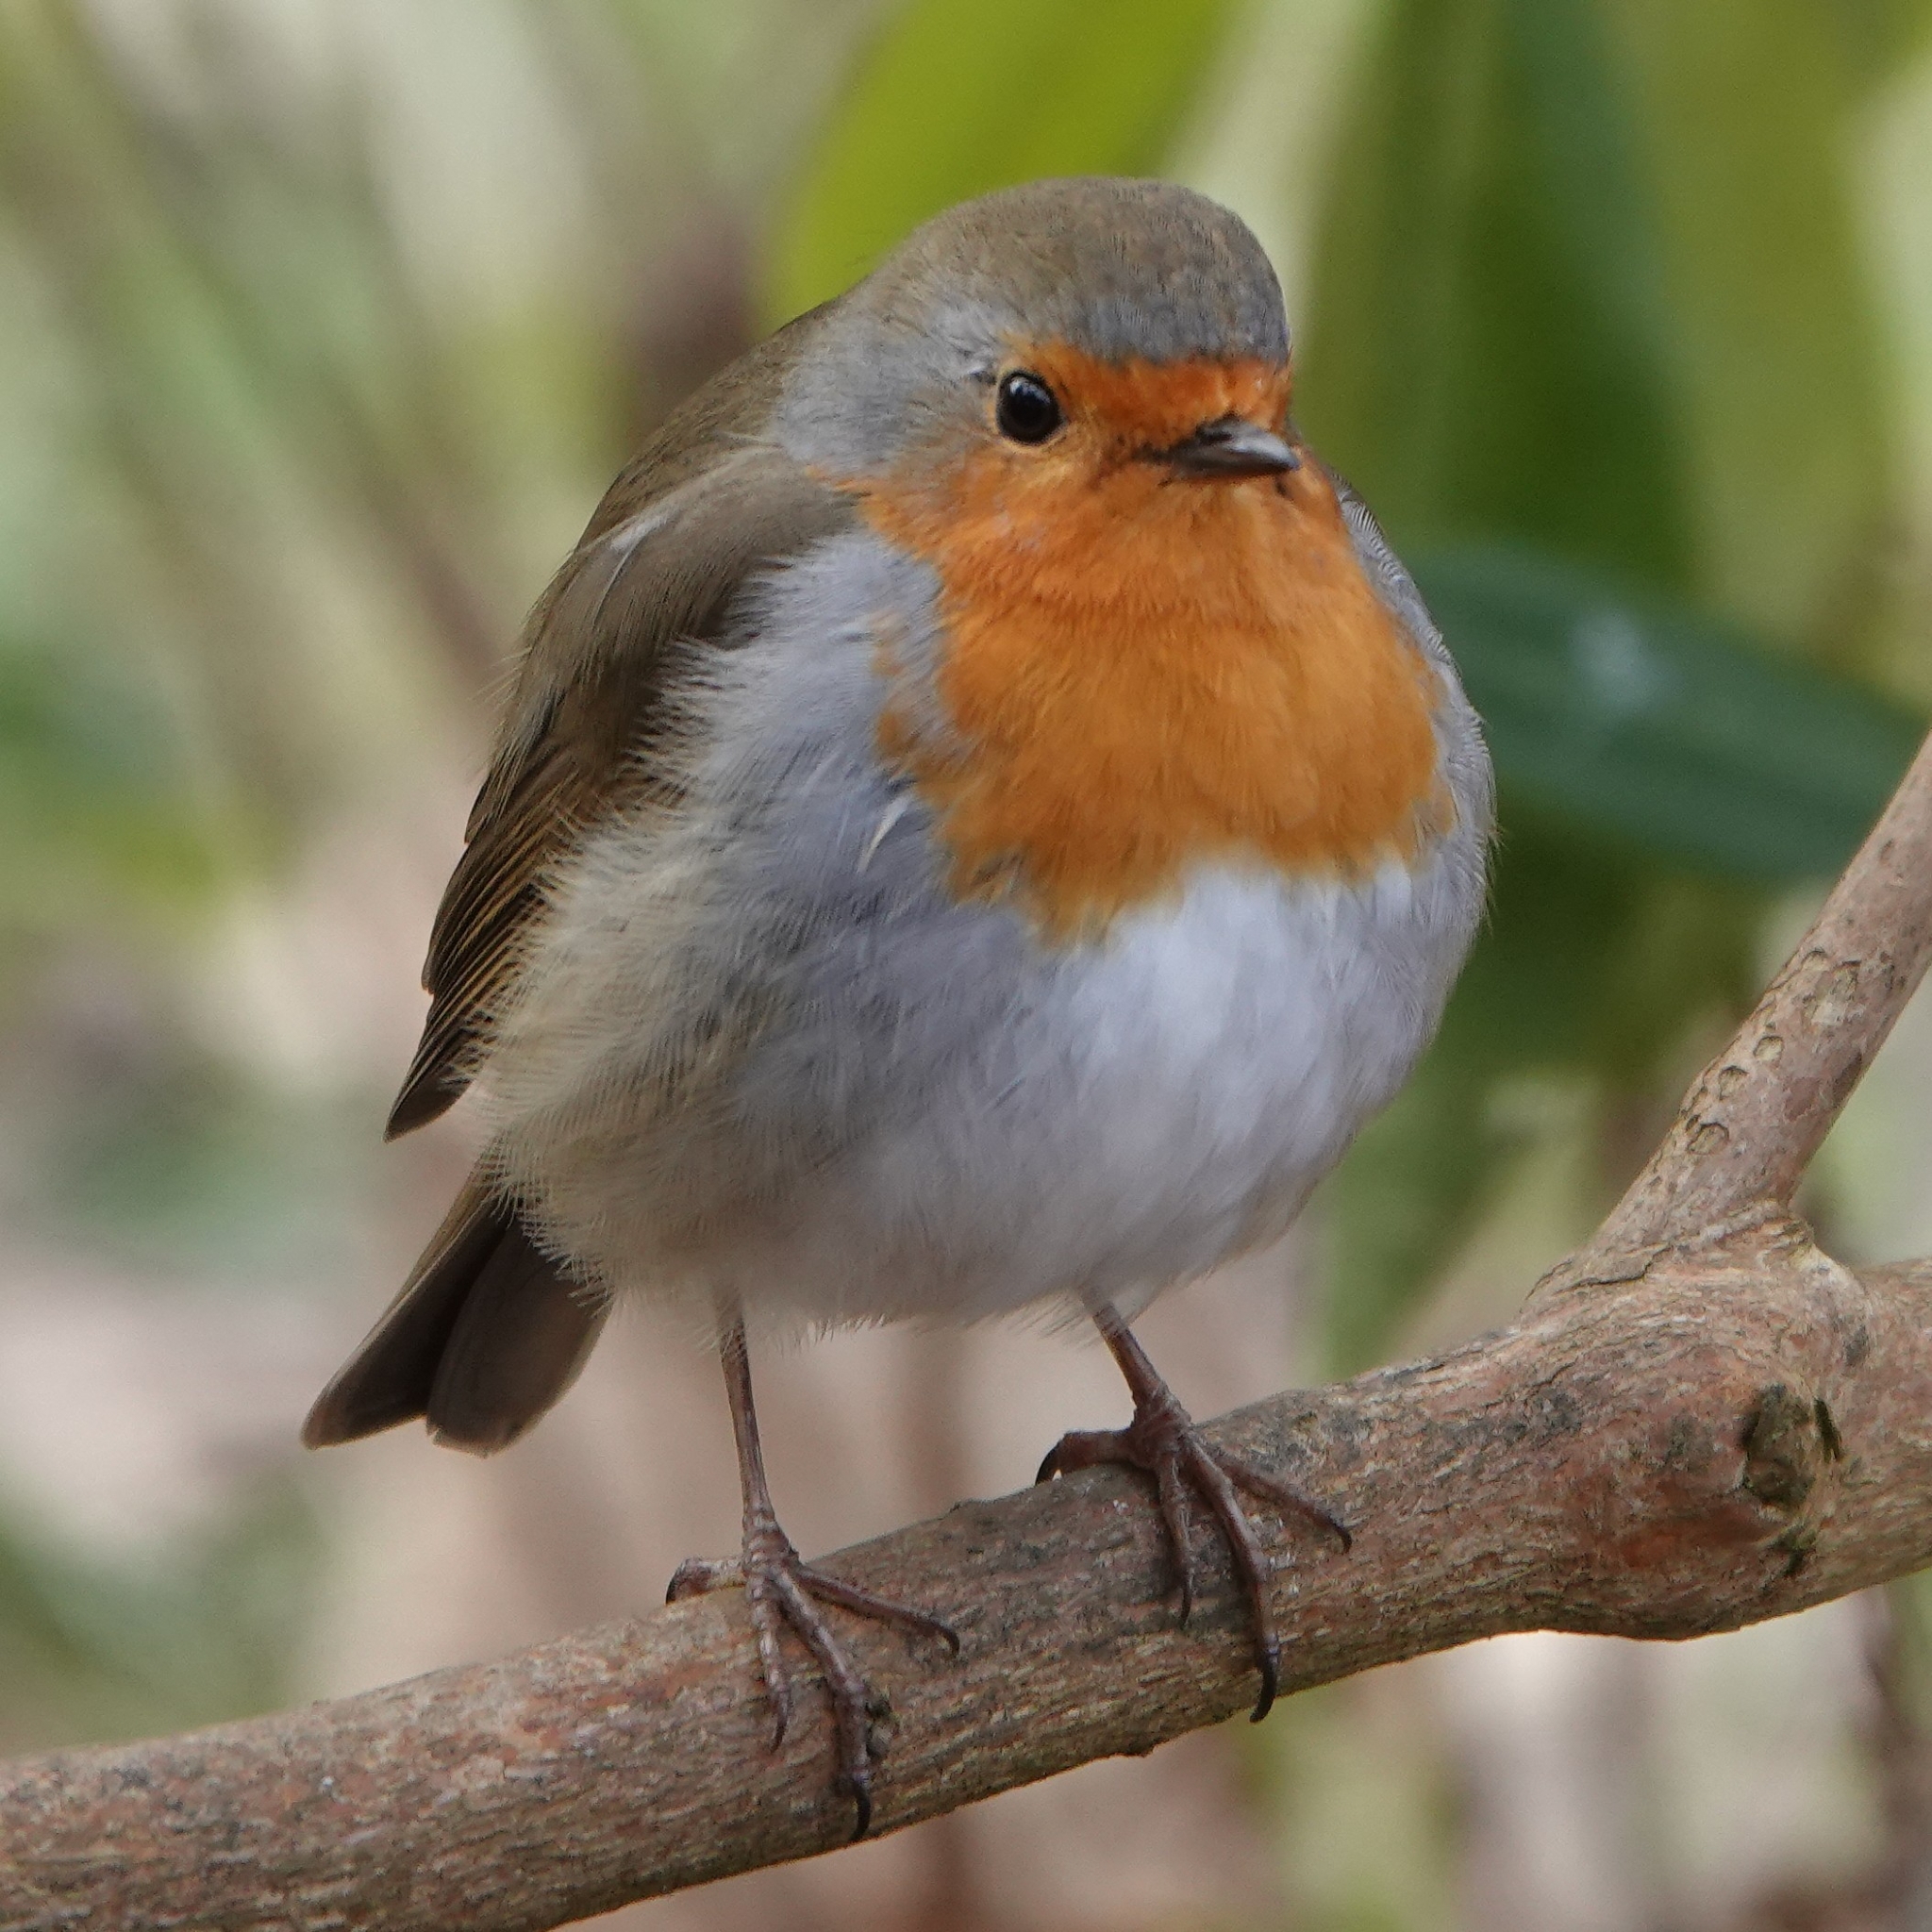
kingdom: Animalia
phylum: Chordata
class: Aves
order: Passeriformes
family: Muscicapidae
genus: Erithacus
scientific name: Erithacus rubecula
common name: European robin
